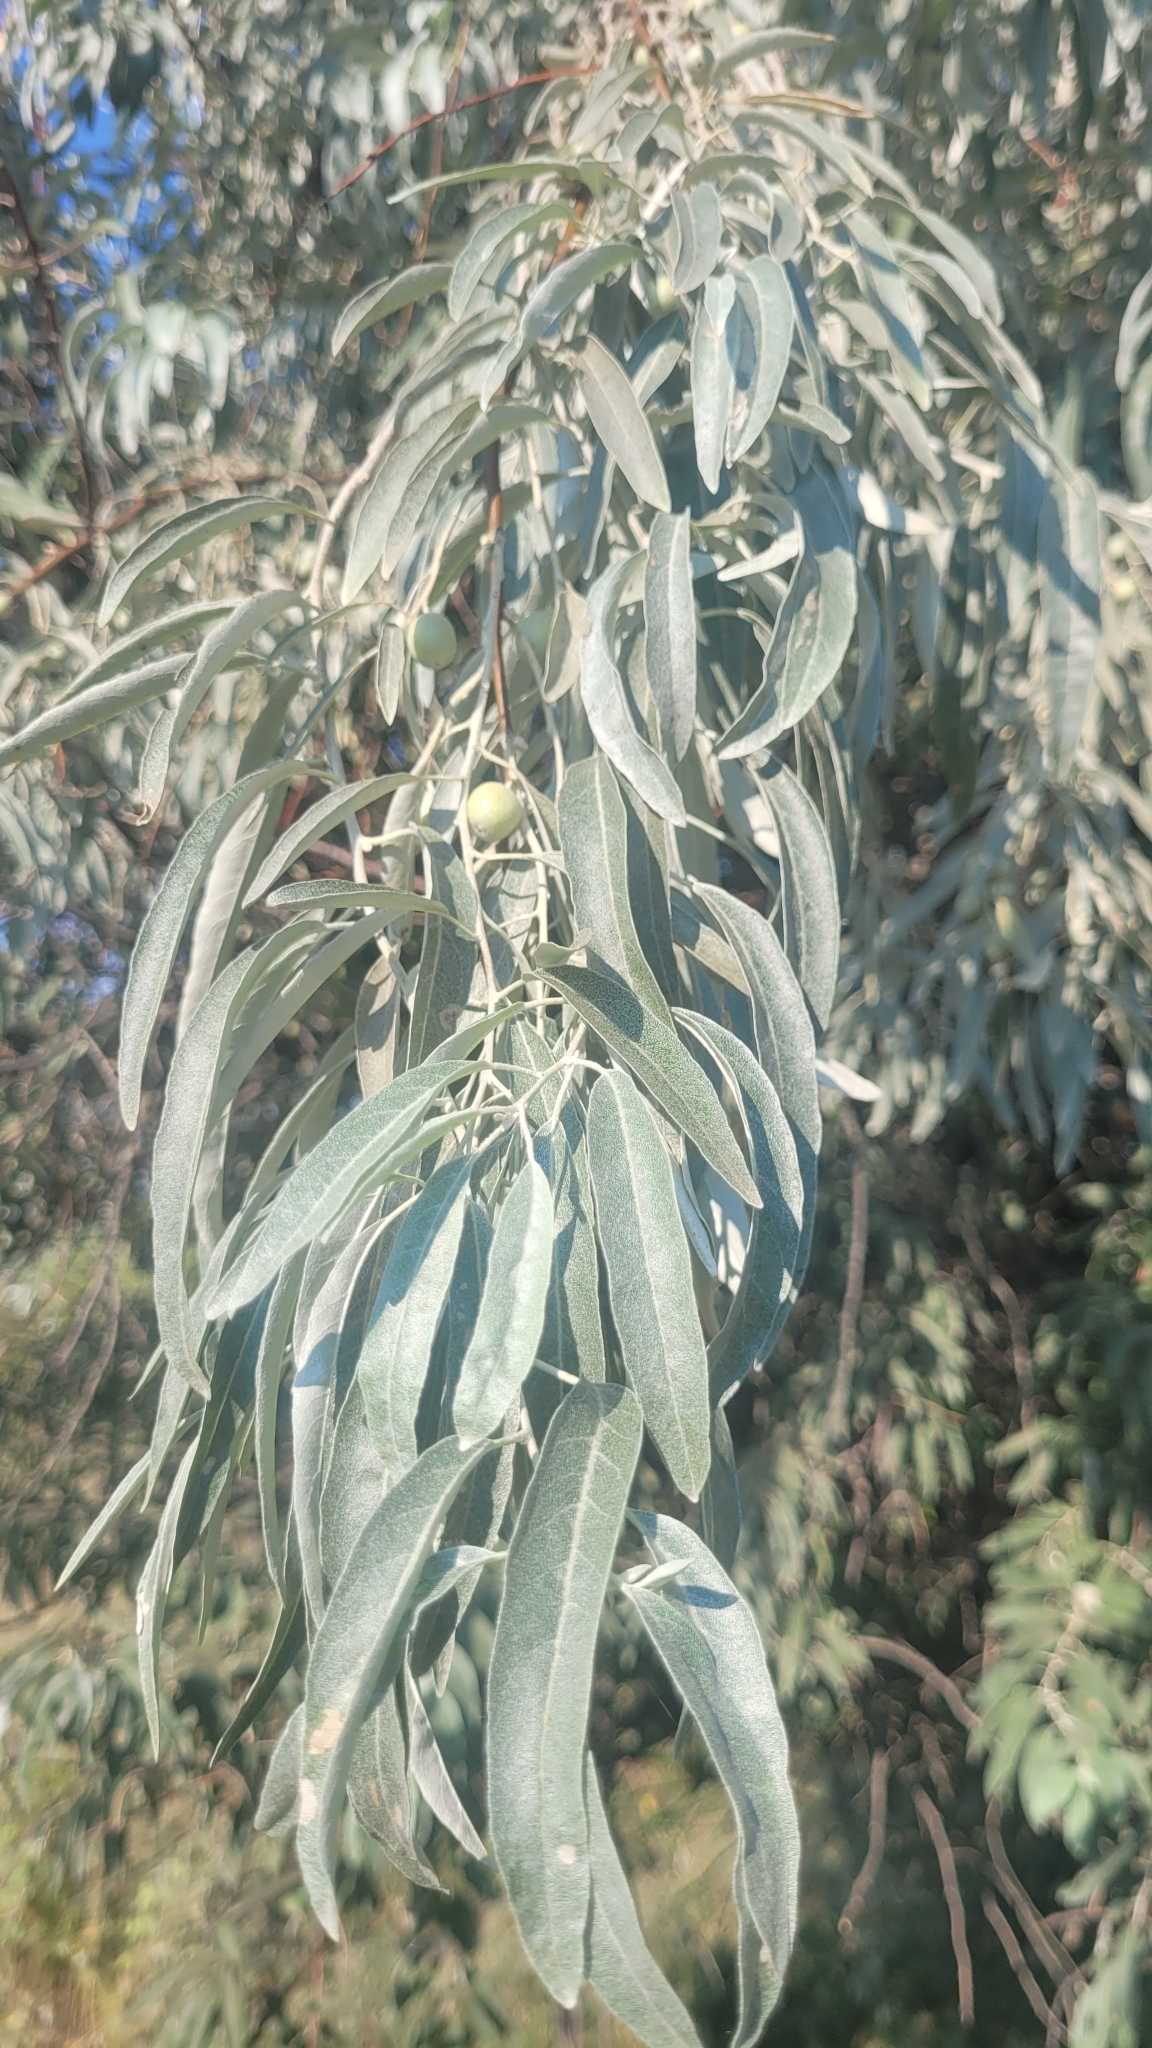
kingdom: Plantae
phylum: Tracheophyta
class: Magnoliopsida
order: Rosales
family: Elaeagnaceae
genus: Elaeagnus
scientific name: Elaeagnus angustifolia
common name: Russian olive
